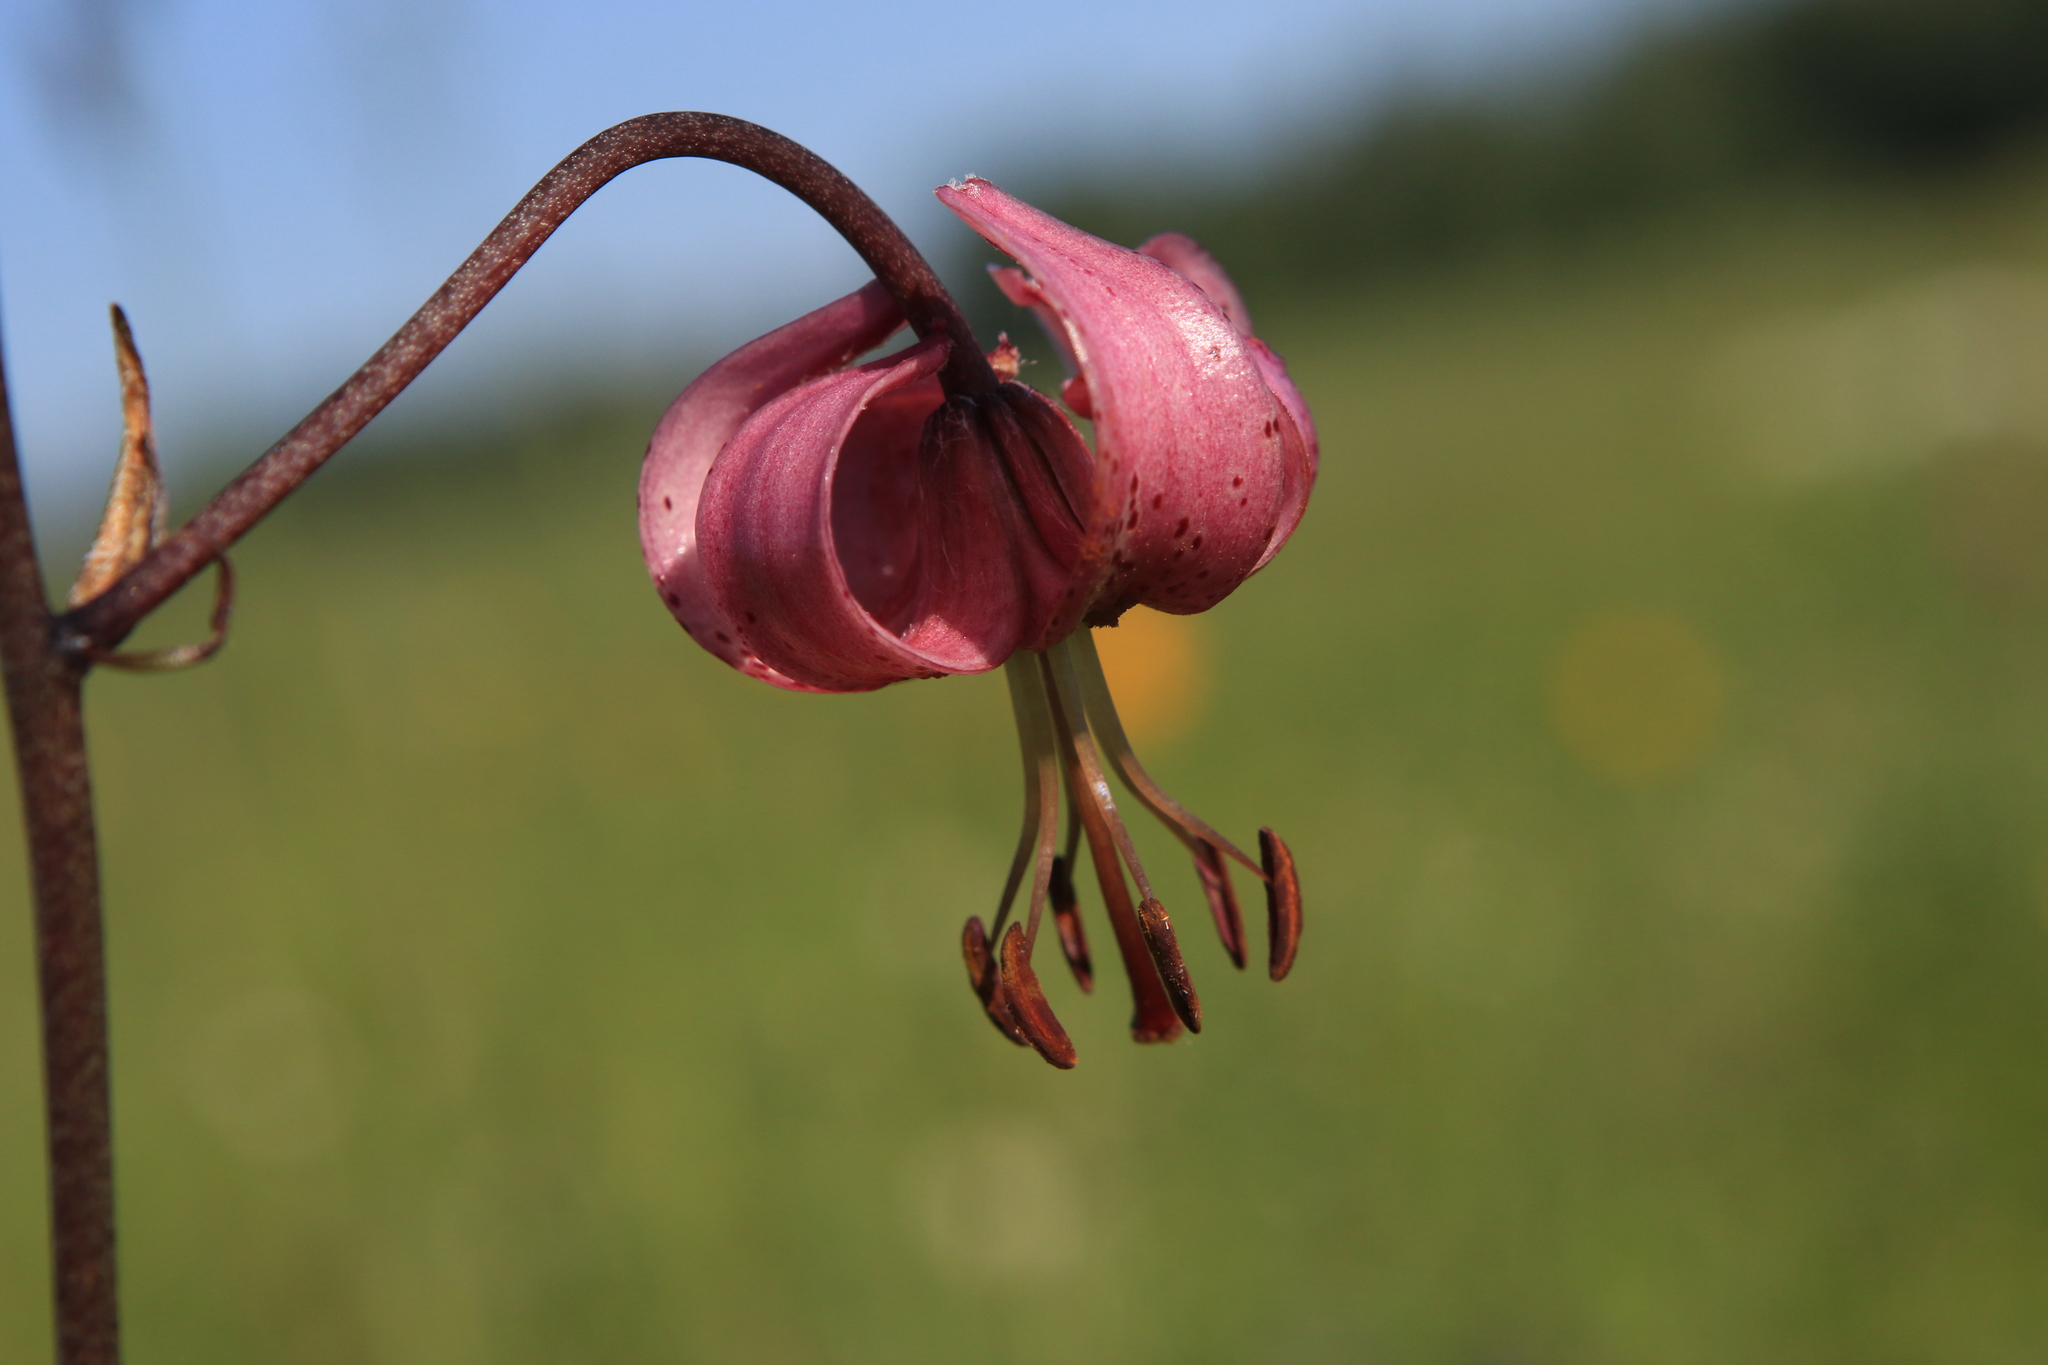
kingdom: Plantae
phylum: Tracheophyta
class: Liliopsida
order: Liliales
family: Liliaceae
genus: Lilium
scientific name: Lilium martagon
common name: Martagon lily
